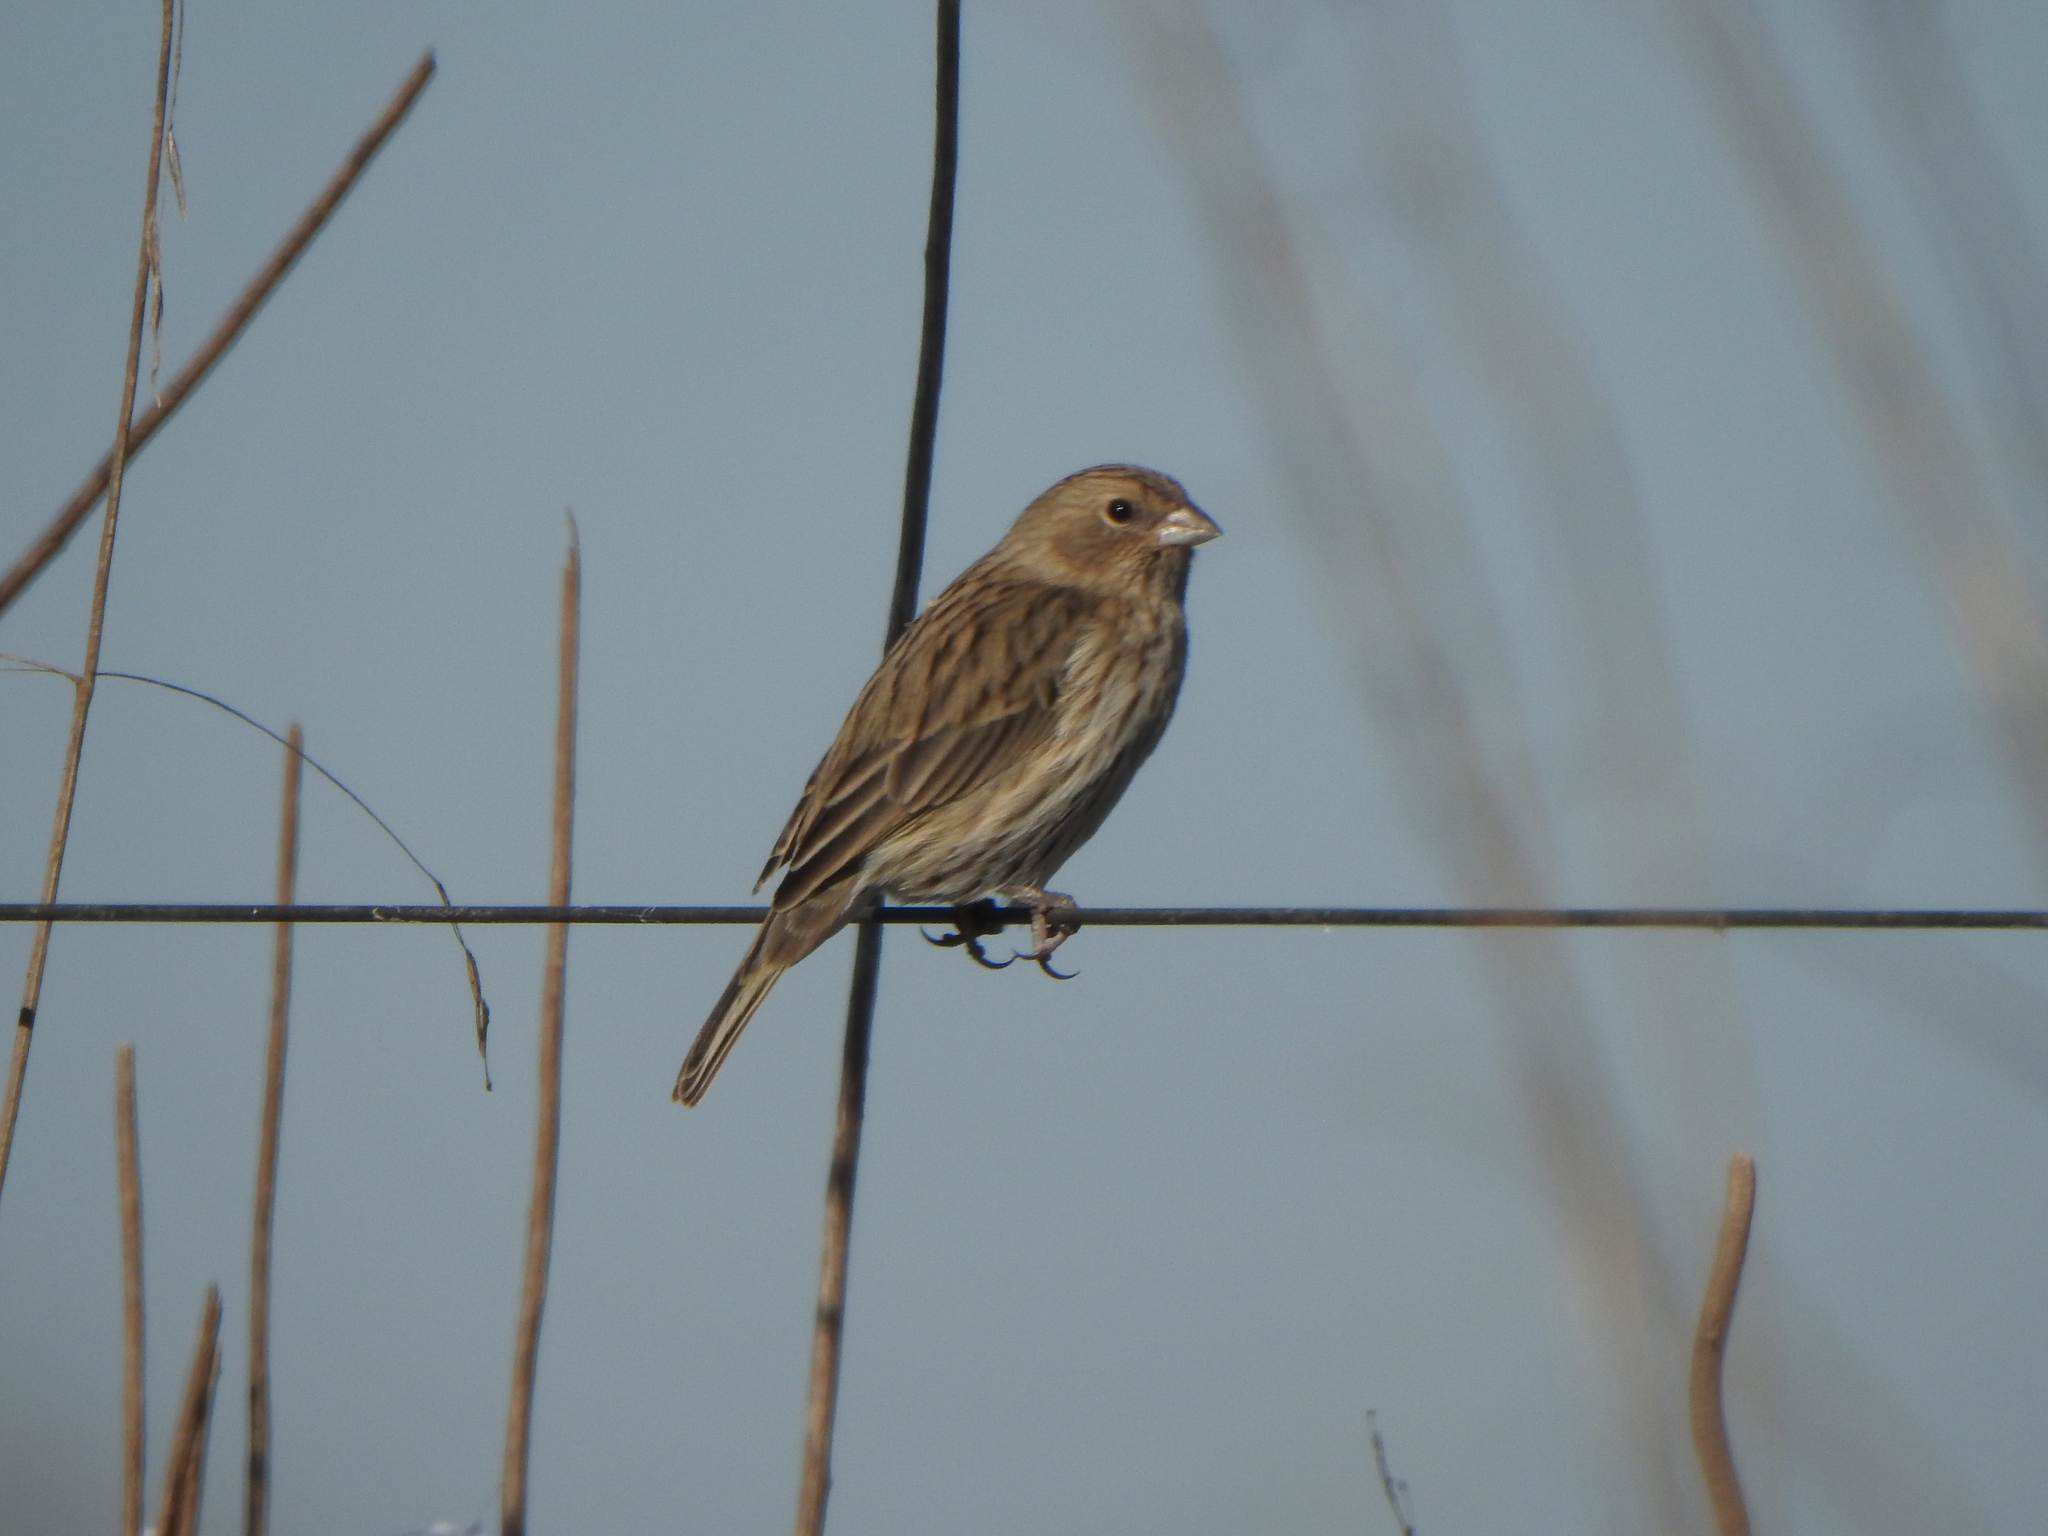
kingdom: Animalia
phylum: Chordata
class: Aves
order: Passeriformes
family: Thraupidae
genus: Sicalis
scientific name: Sicalis flaveola
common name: Saffron finch
